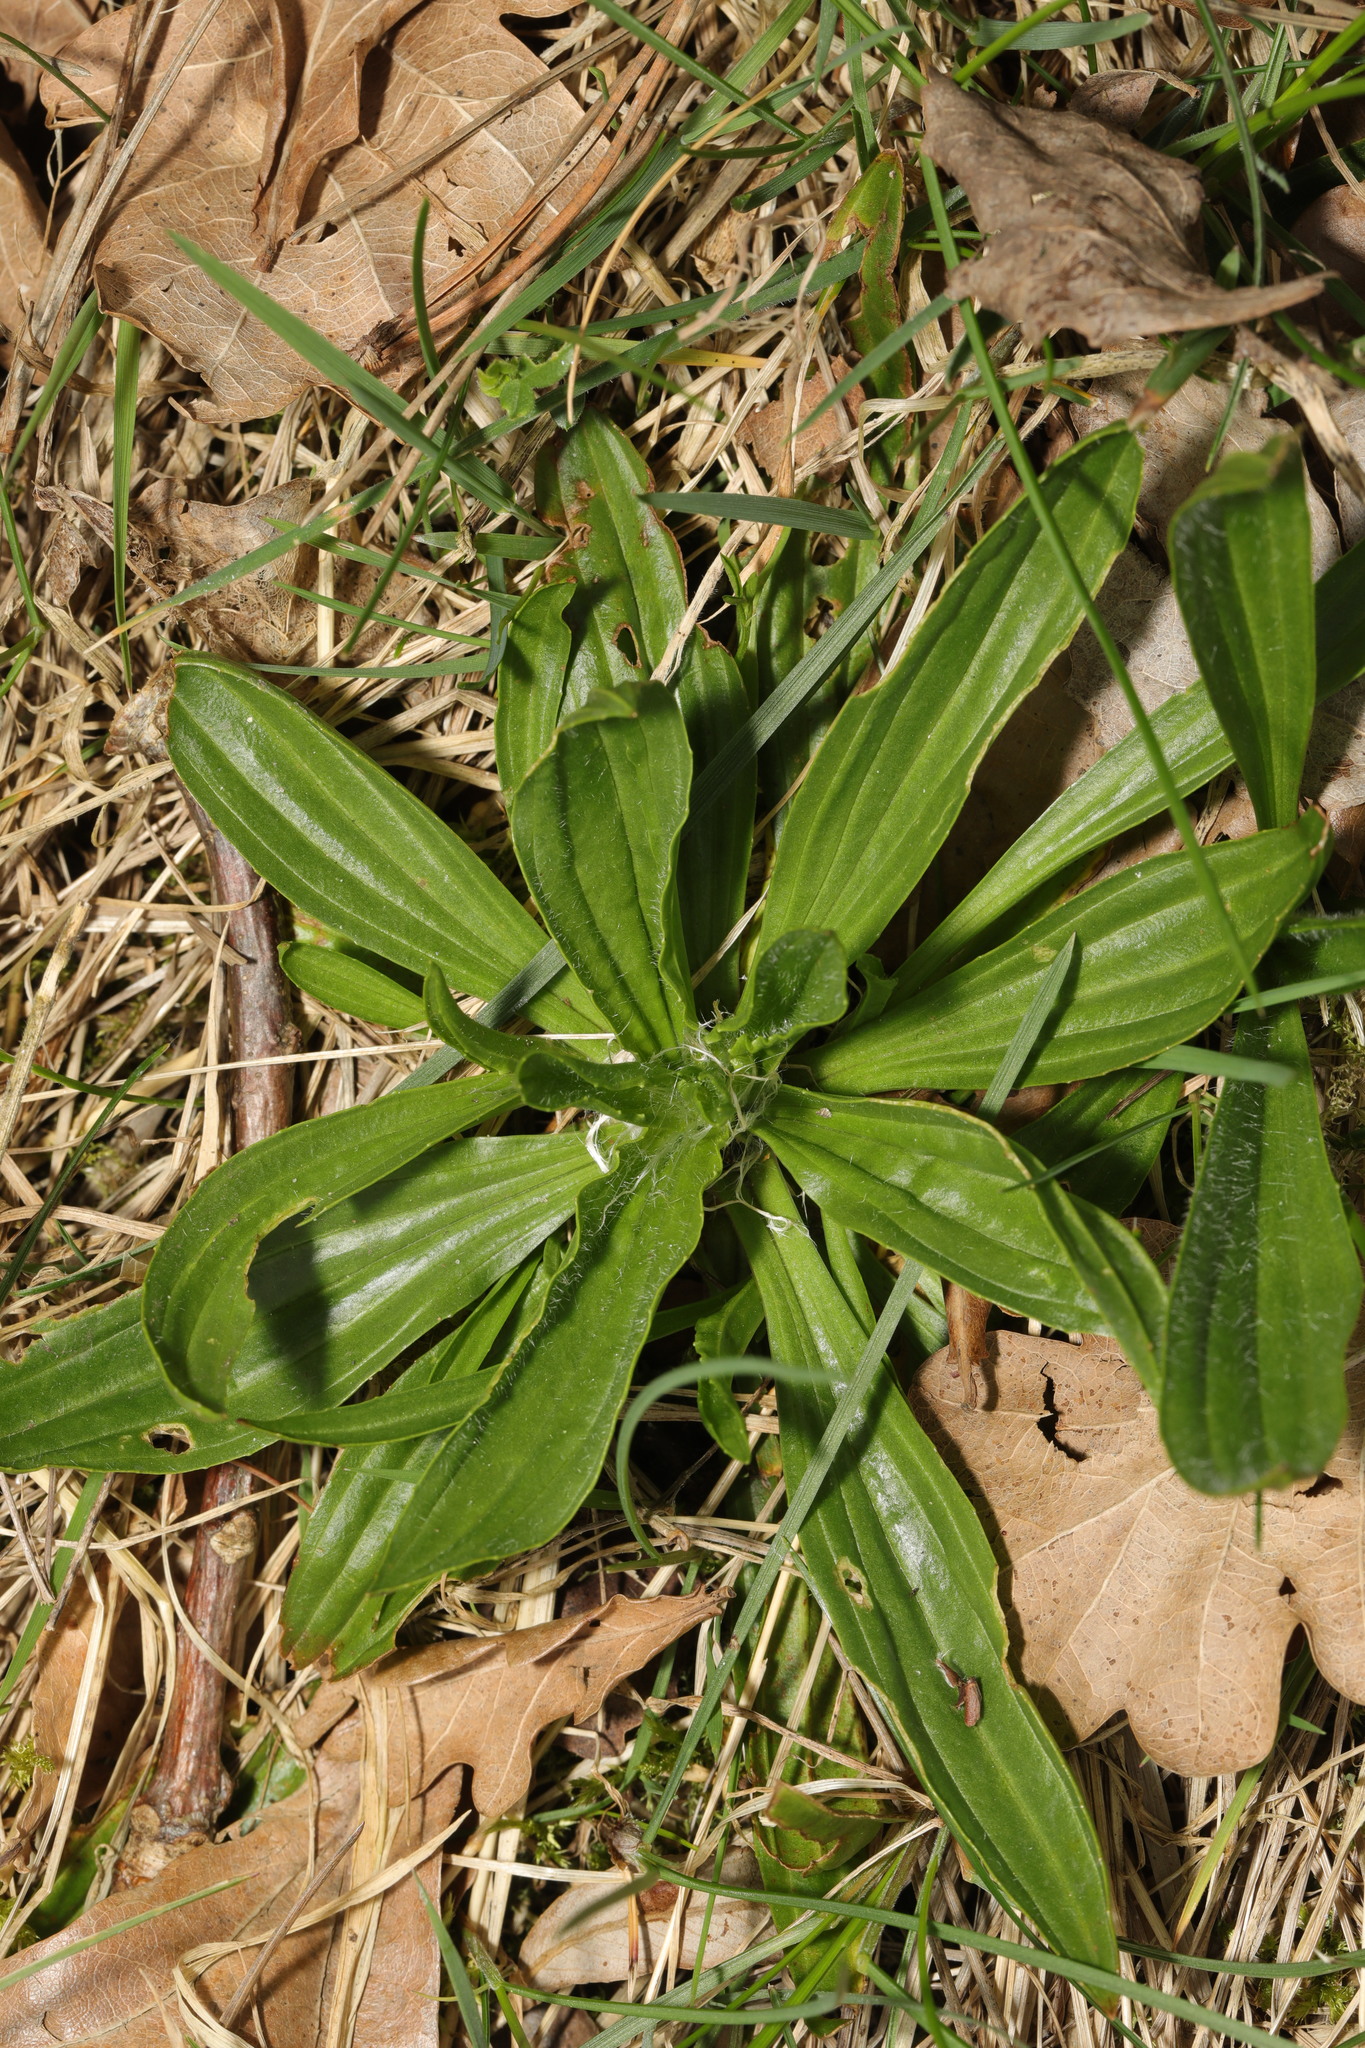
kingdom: Plantae
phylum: Tracheophyta
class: Magnoliopsida
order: Lamiales
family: Plantaginaceae
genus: Plantago
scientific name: Plantago lanceolata
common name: Ribwort plantain
